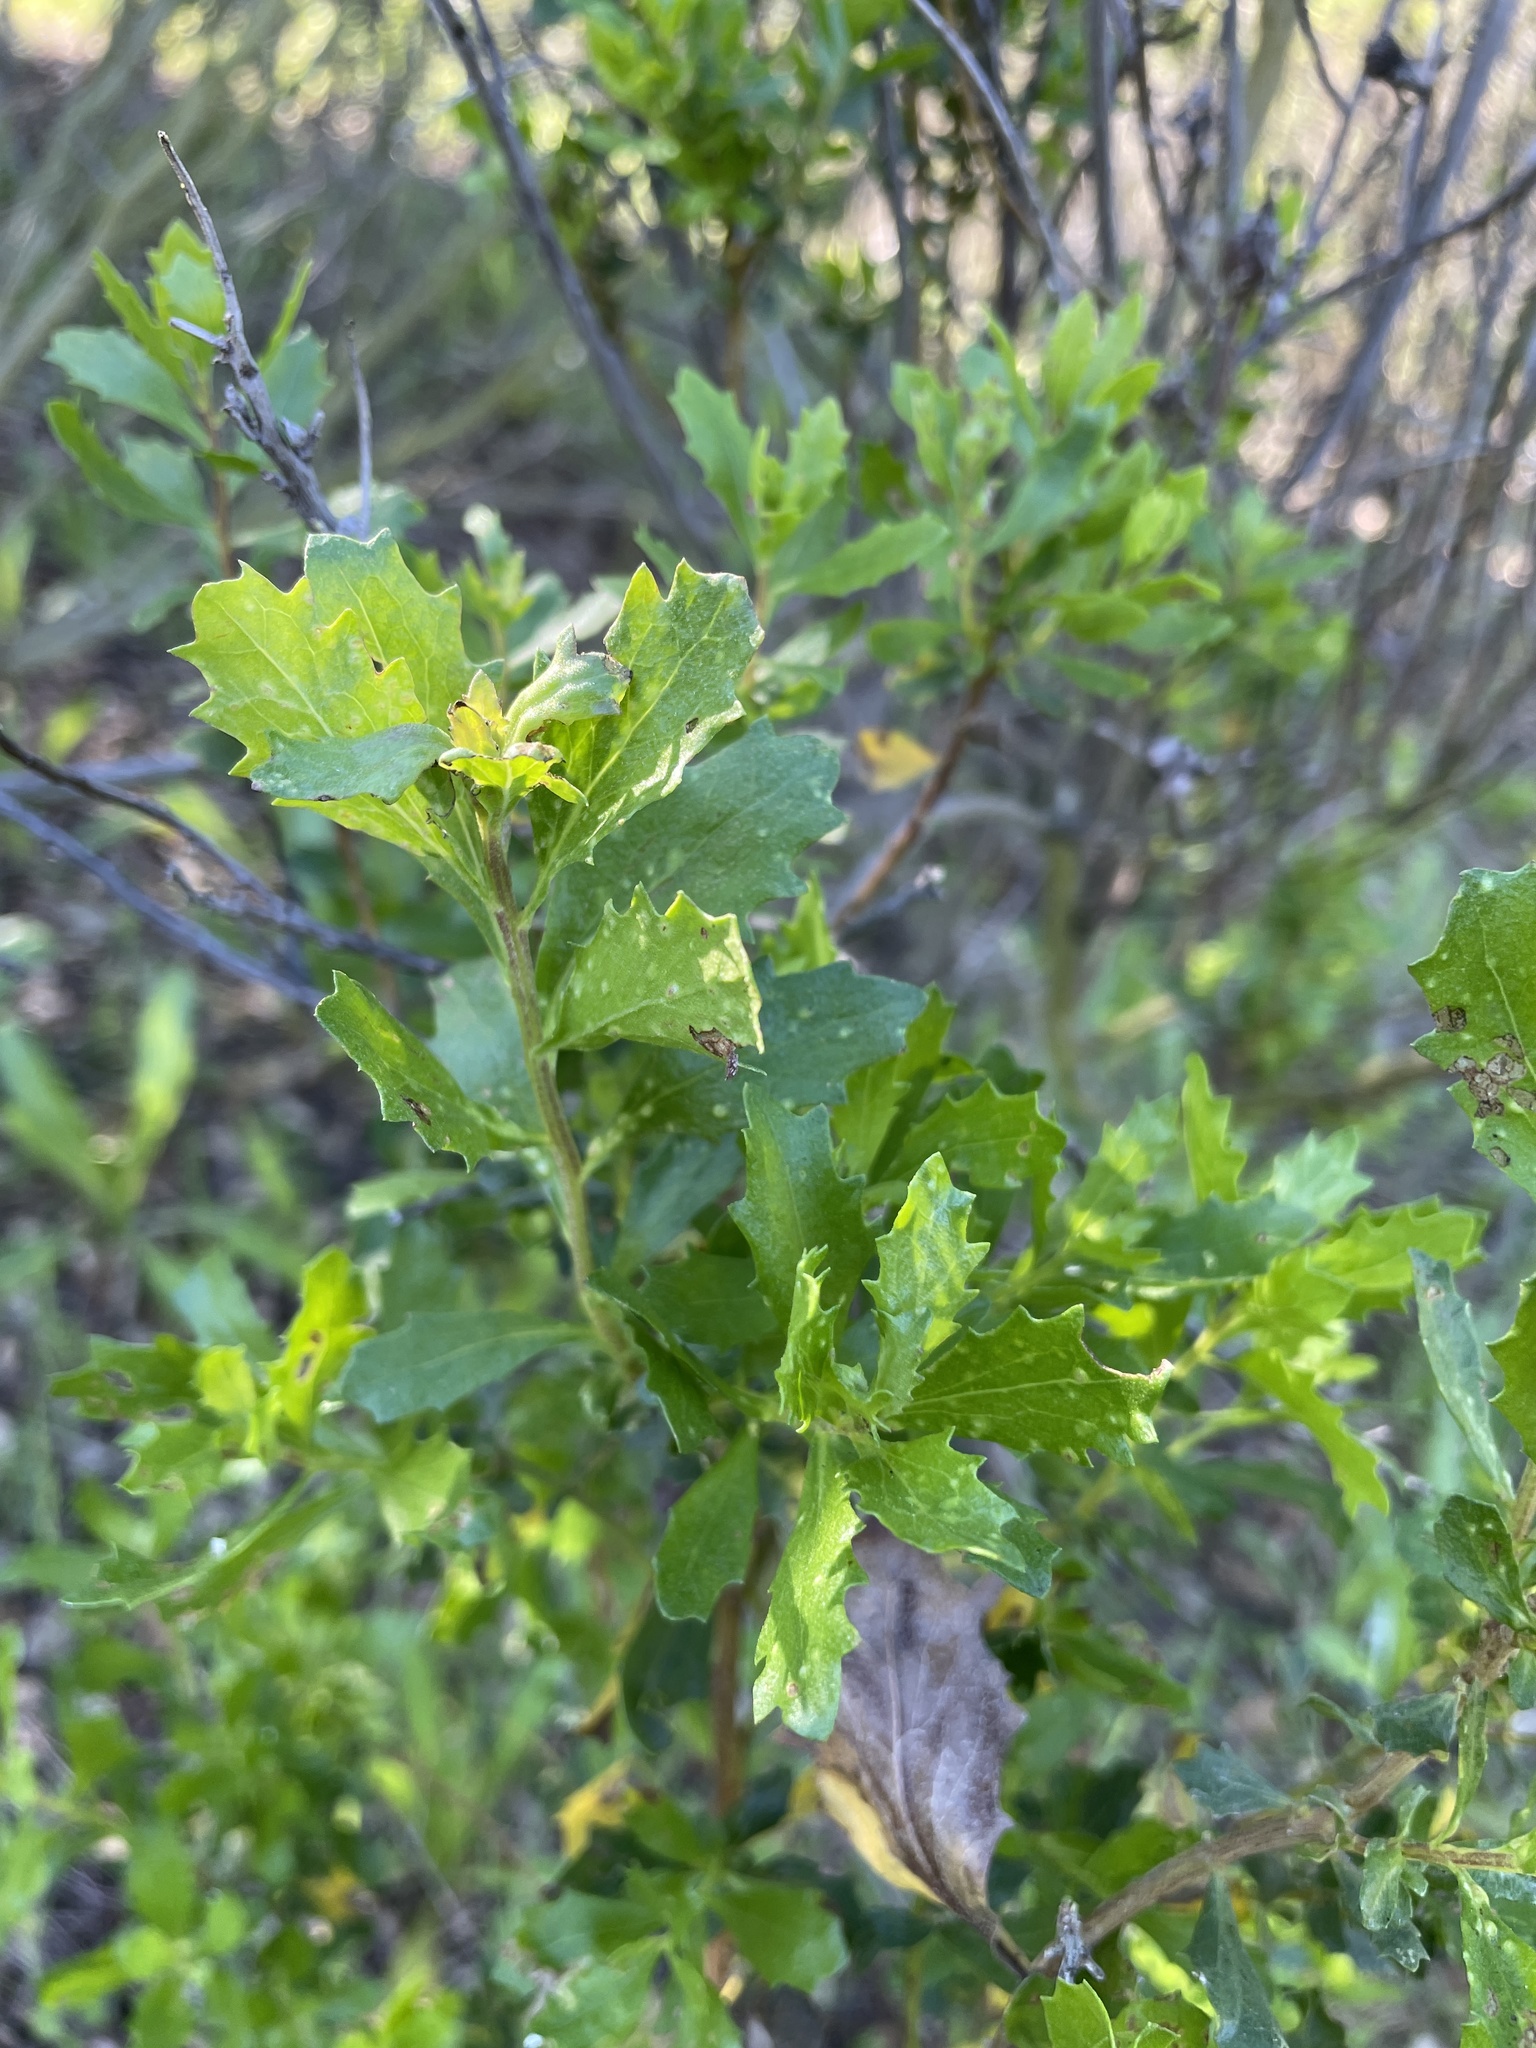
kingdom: Plantae
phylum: Tracheophyta
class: Magnoliopsida
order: Asterales
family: Asteraceae
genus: Baccharis
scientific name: Baccharis pilularis
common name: Coyotebrush
